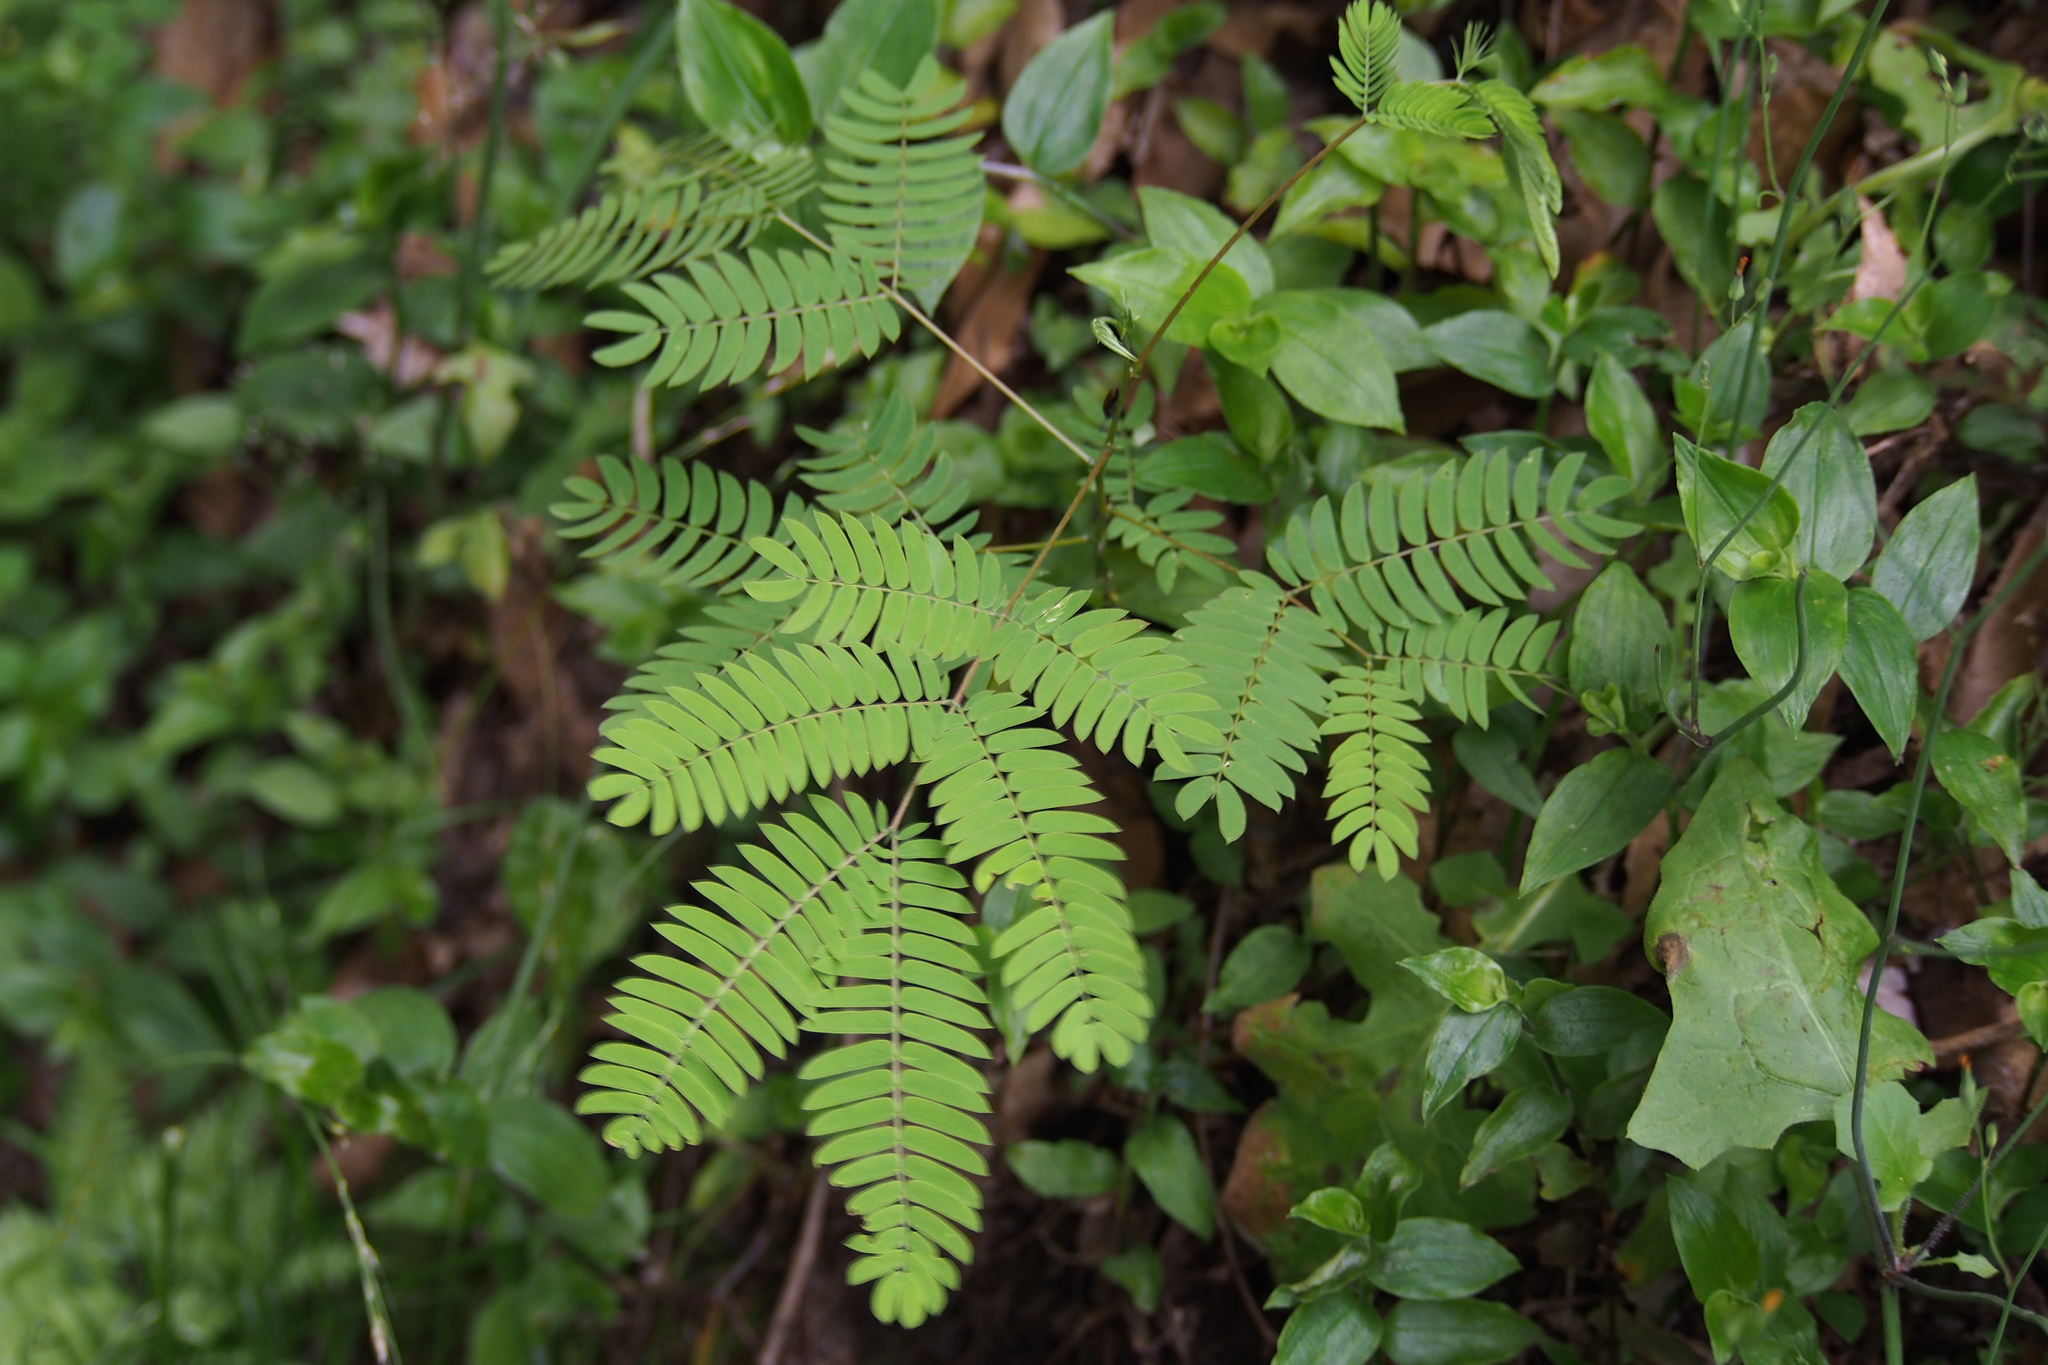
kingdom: Plantae
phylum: Tracheophyta
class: Magnoliopsida
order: Fabales
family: Fabaceae
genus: Albizia
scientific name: Albizia julibrissin
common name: Silktree
